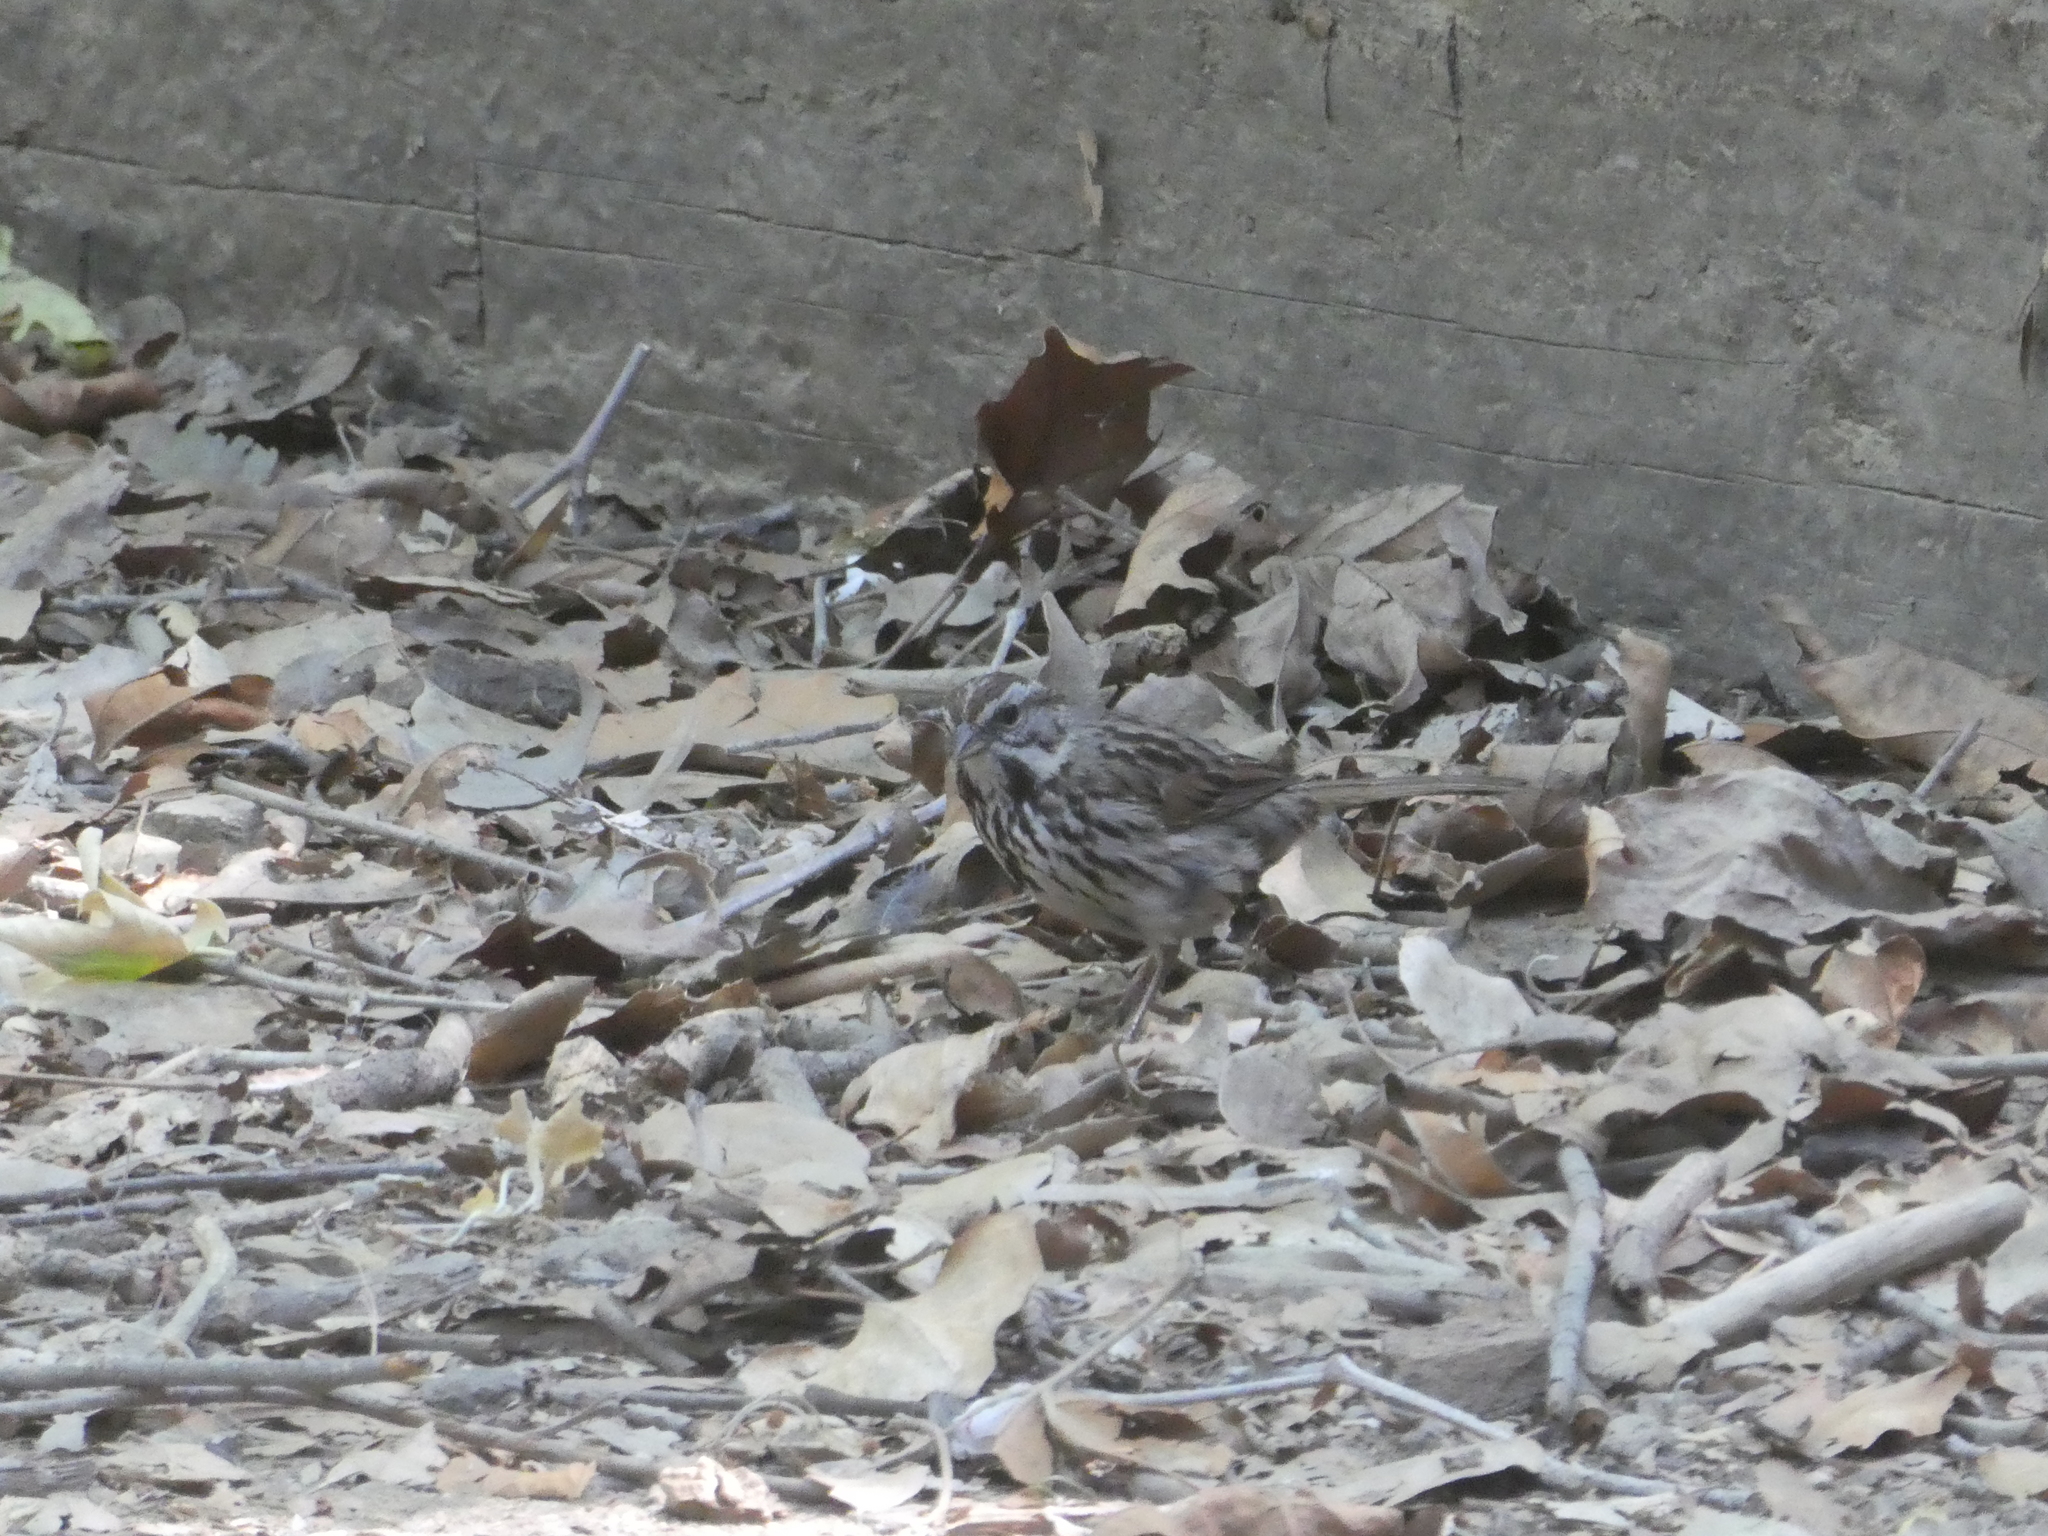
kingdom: Animalia
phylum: Chordata
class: Aves
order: Passeriformes
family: Passerellidae
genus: Melospiza
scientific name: Melospiza melodia
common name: Song sparrow
